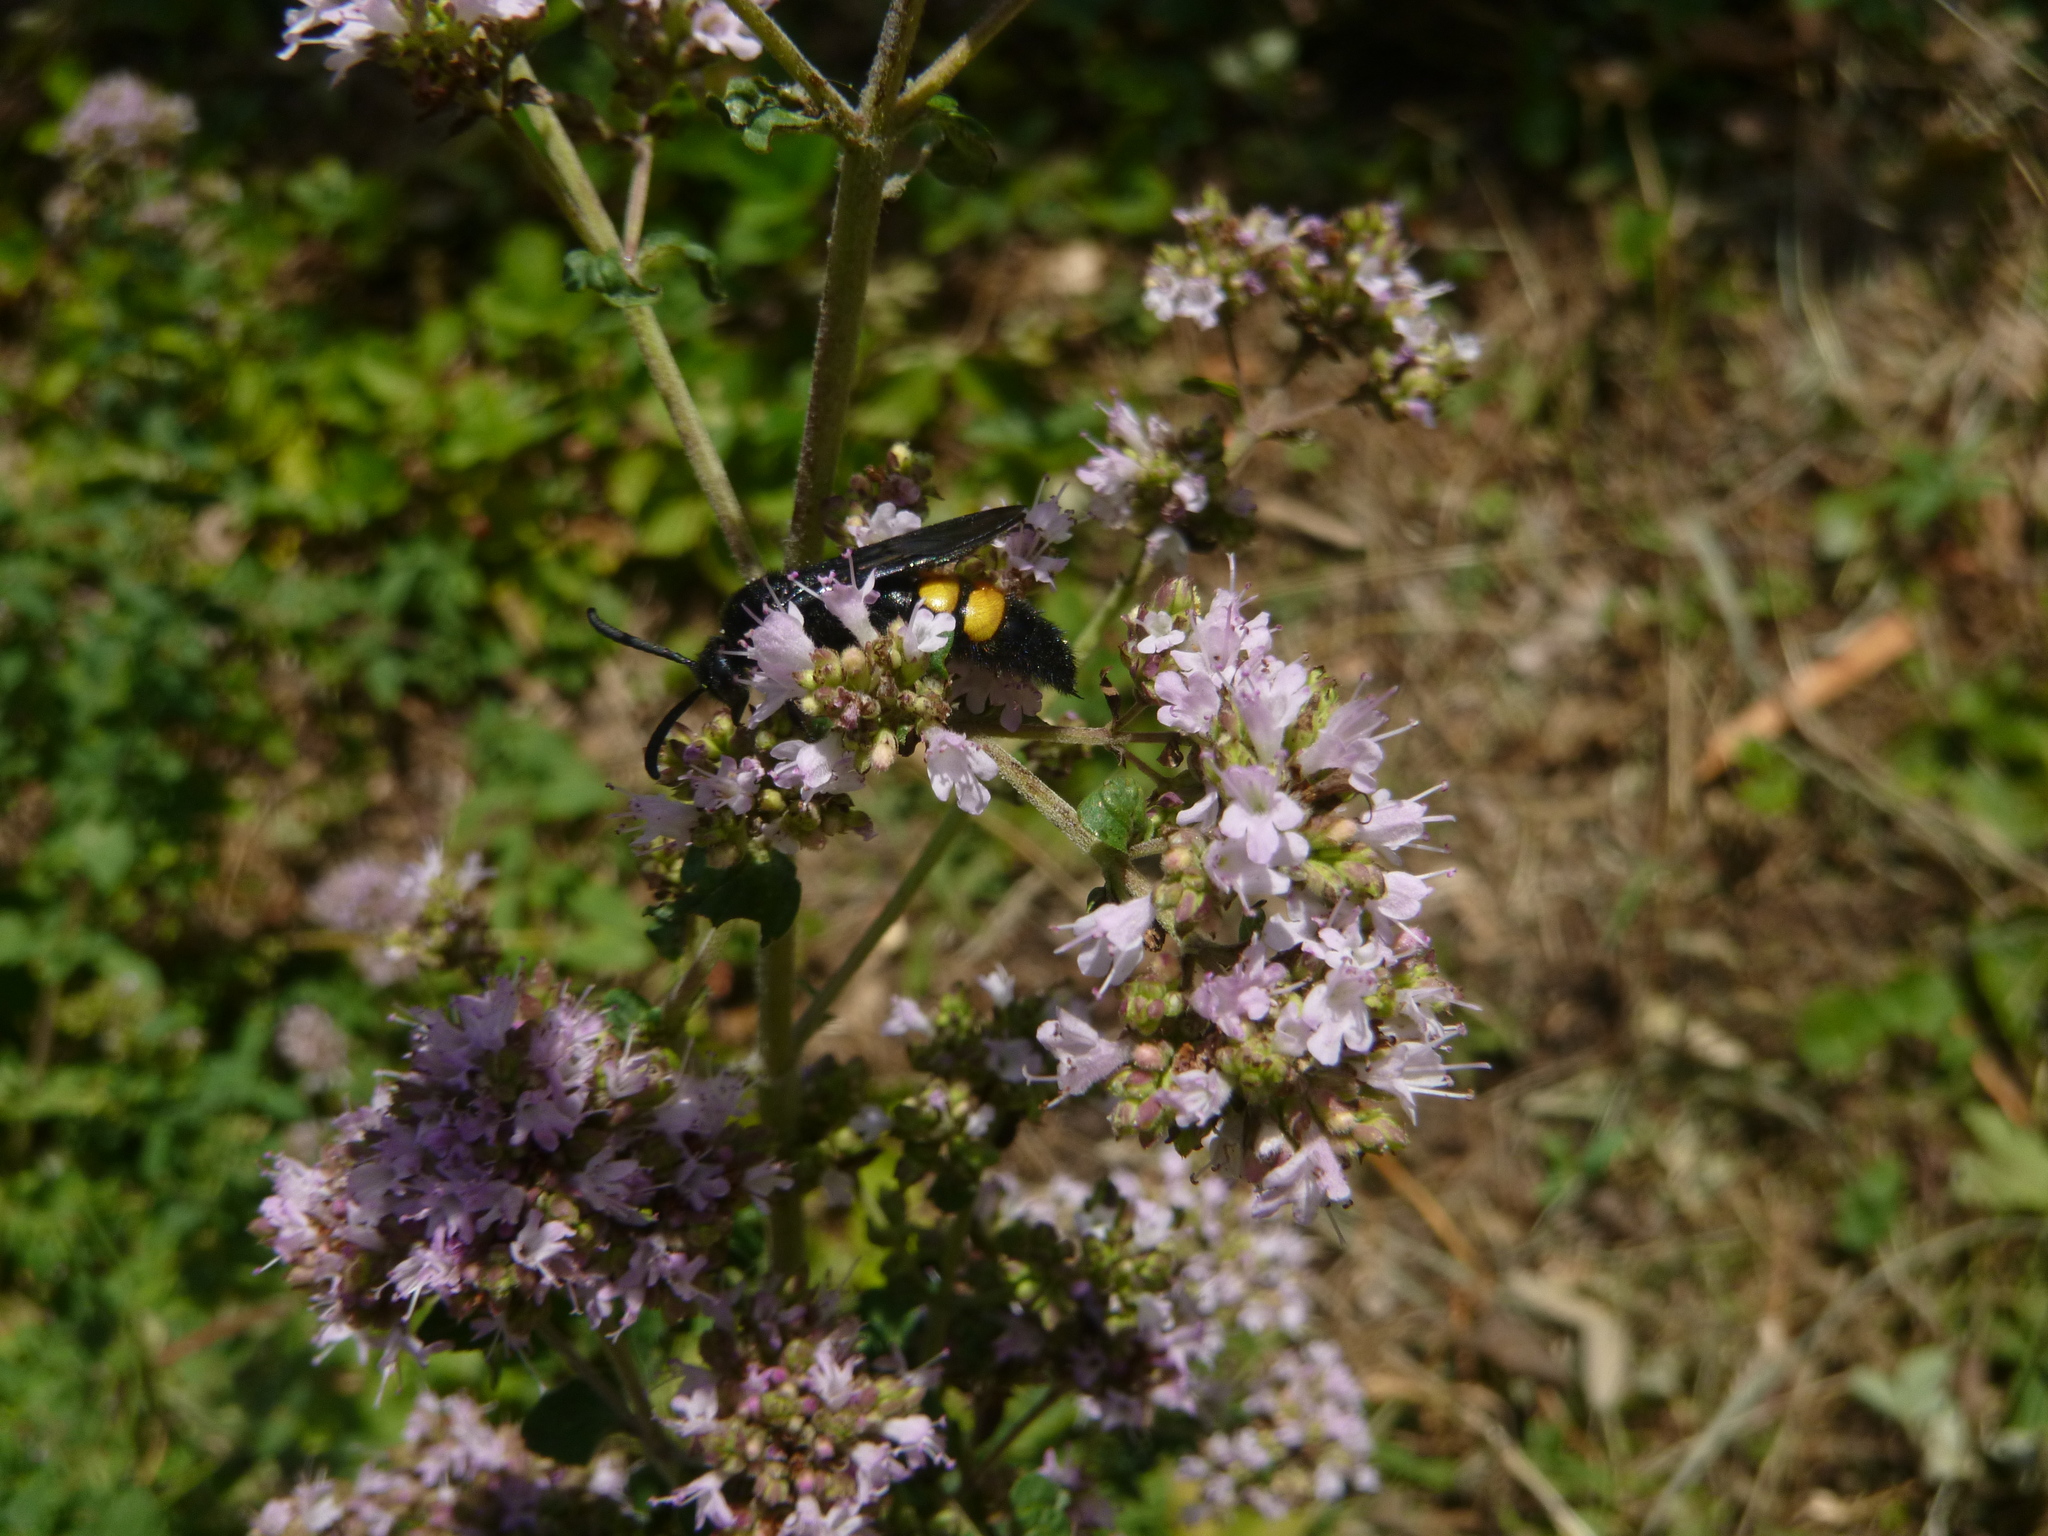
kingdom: Animalia
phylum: Arthropoda
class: Insecta
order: Hymenoptera
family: Scoliidae
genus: Scolia
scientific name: Scolia hirta
